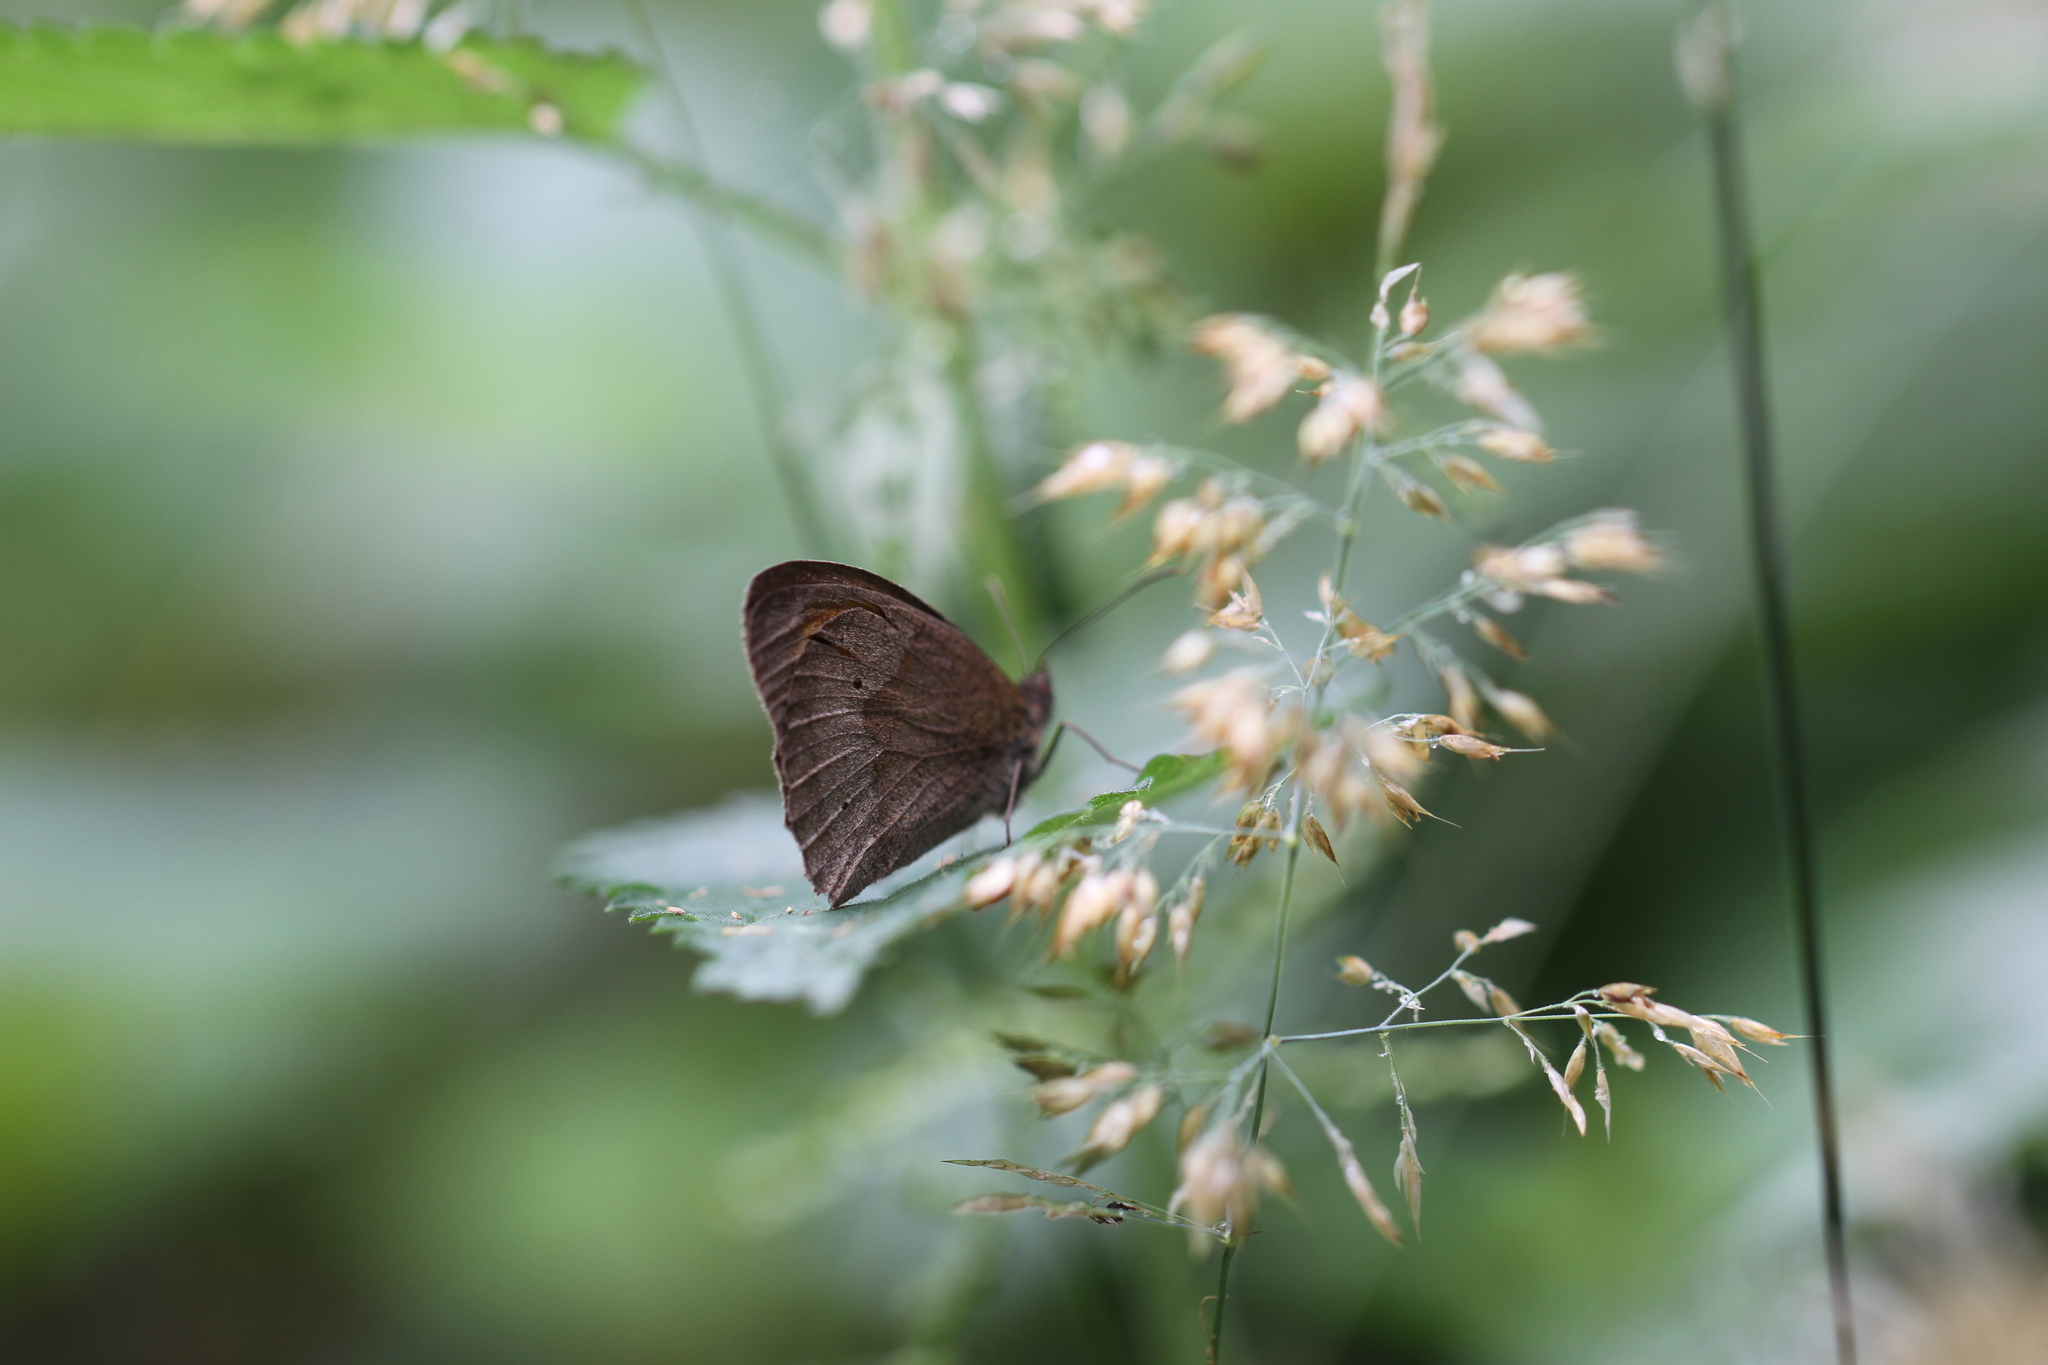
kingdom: Animalia
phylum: Arthropoda
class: Insecta
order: Lepidoptera
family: Nymphalidae
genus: Maniola
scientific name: Maniola jurtina
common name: Meadow brown
